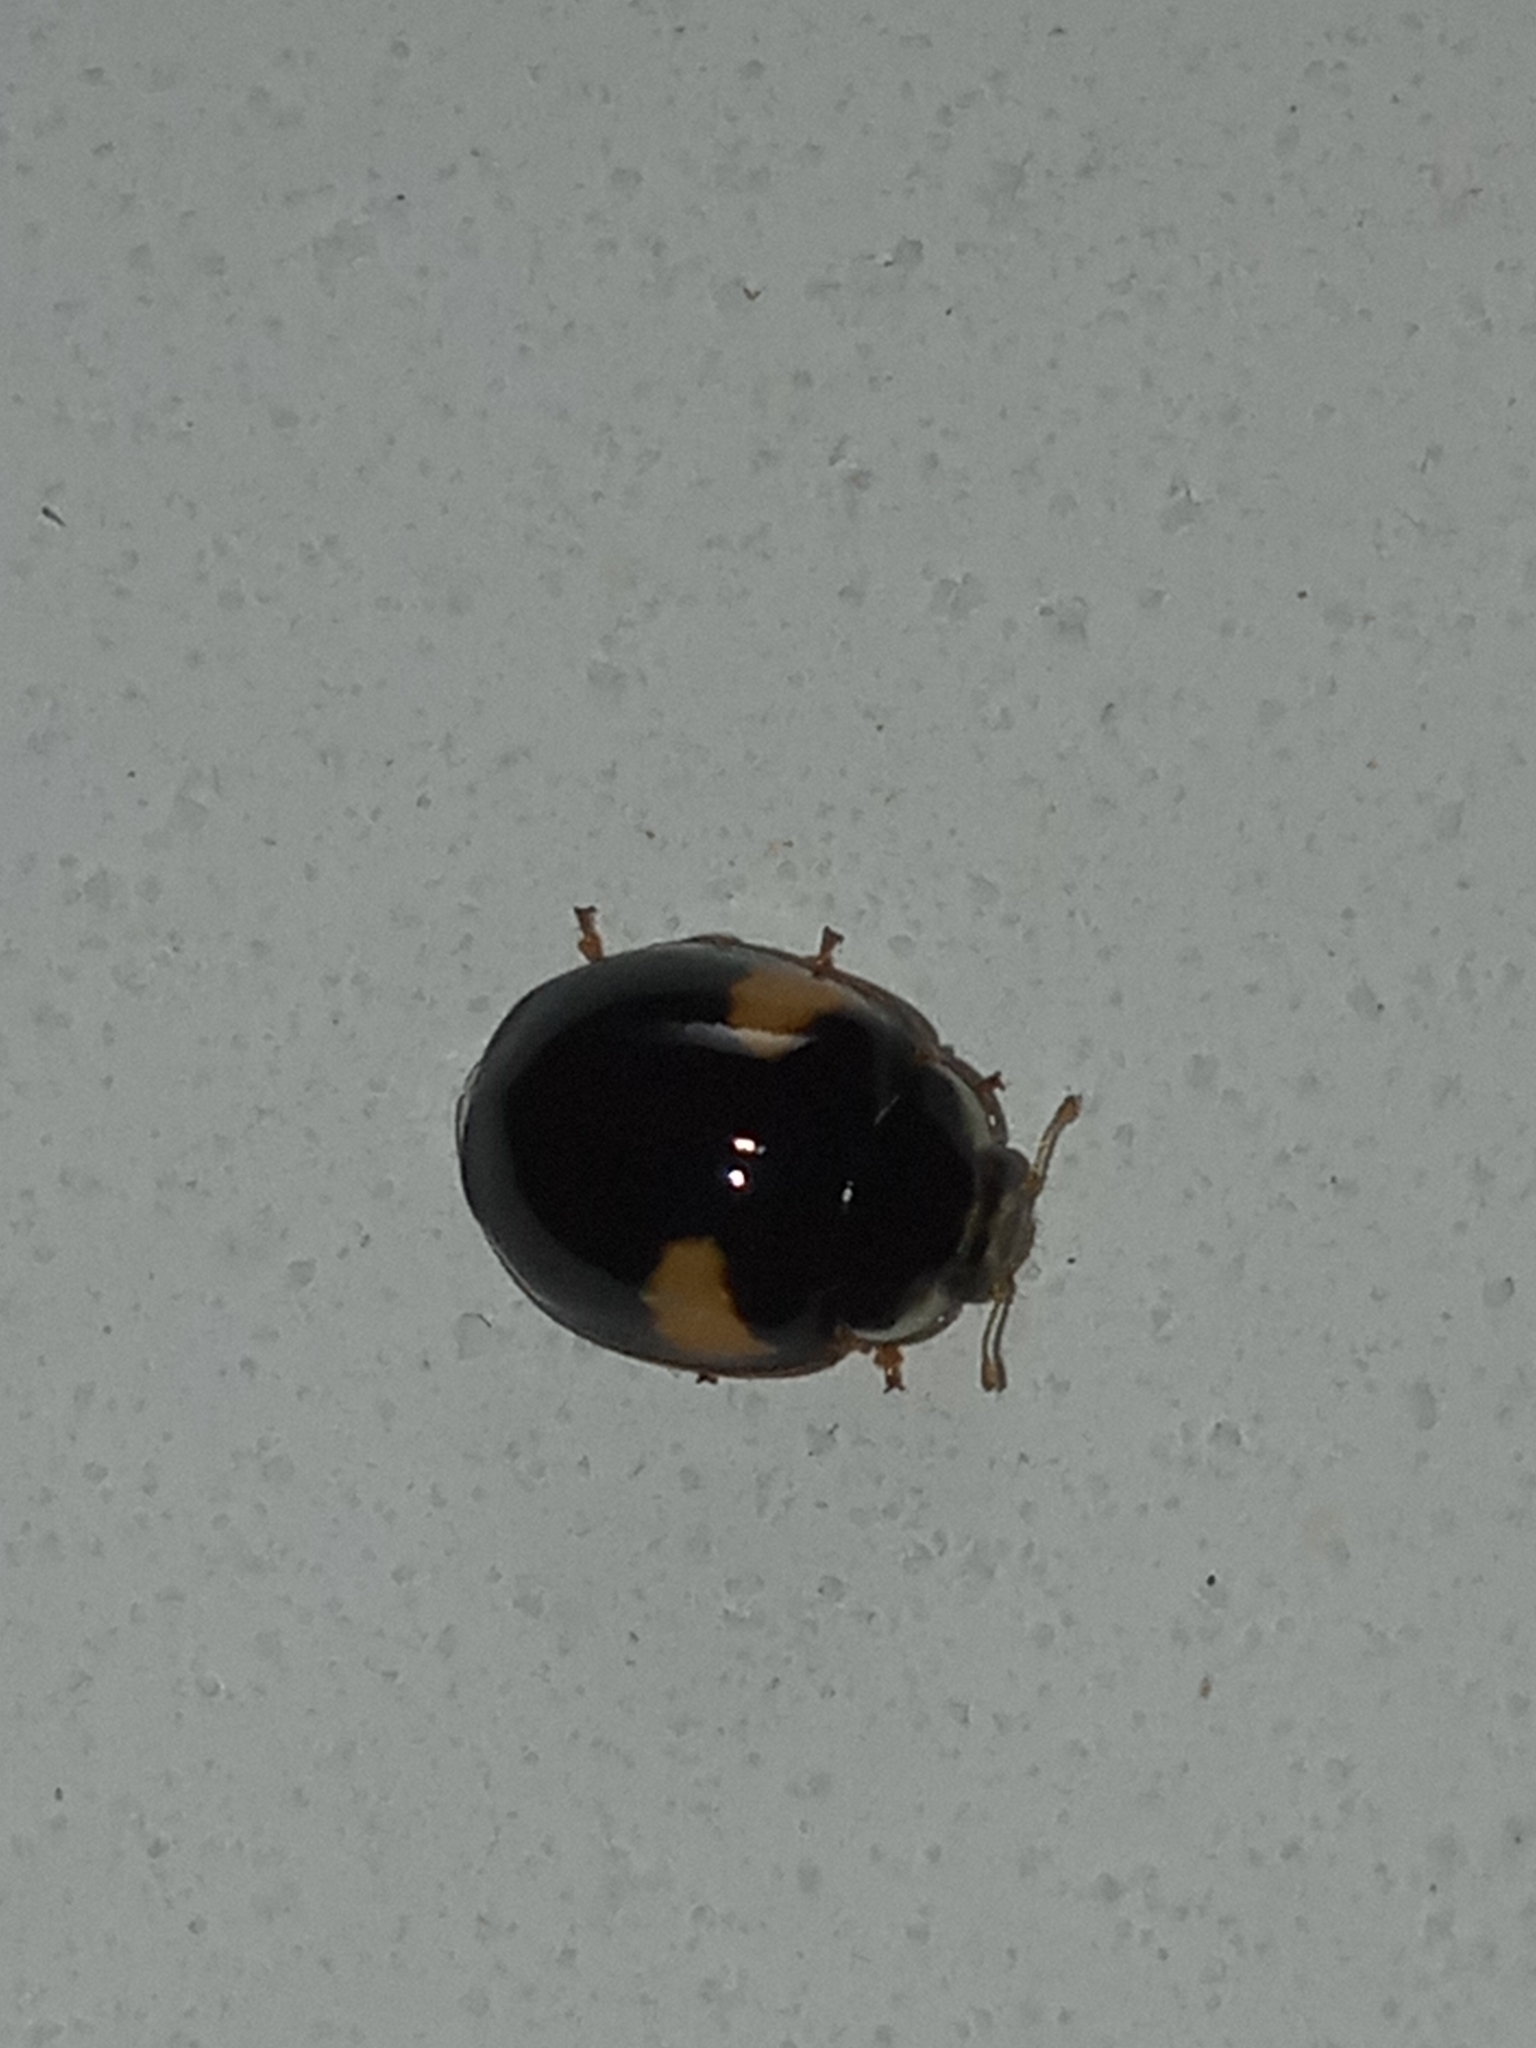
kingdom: Animalia
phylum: Arthropoda
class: Insecta
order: Coleoptera
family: Coccinellidae
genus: Adalia
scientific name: Adalia decempunctata
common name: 10-spot ladybird
